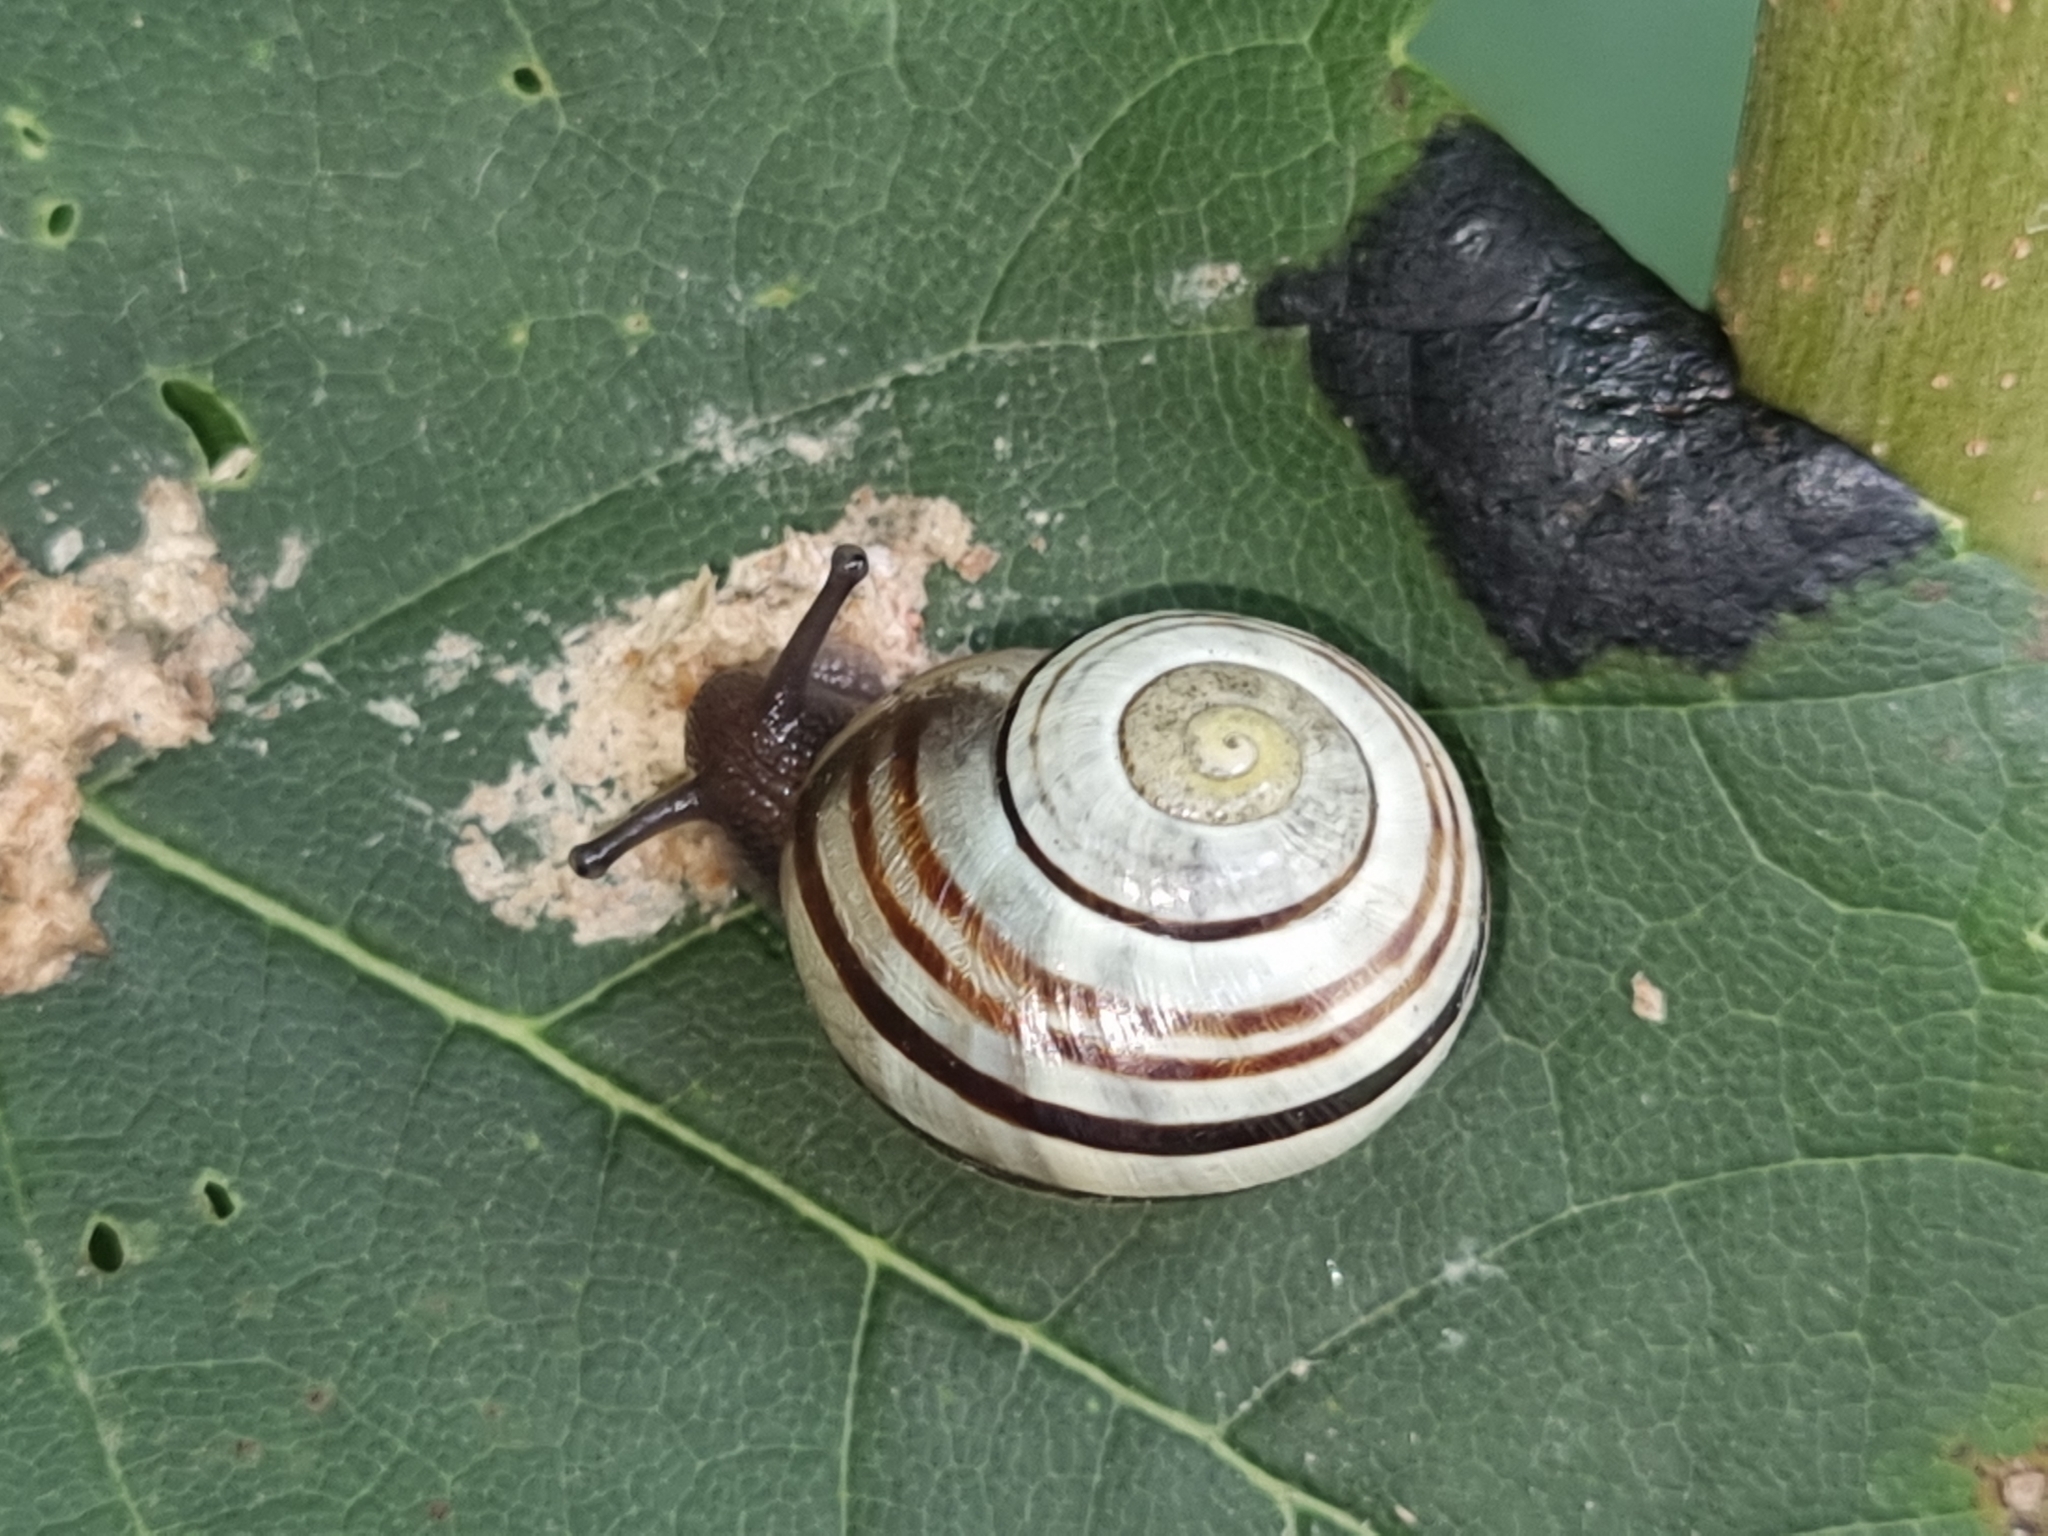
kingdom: Animalia
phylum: Mollusca
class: Gastropoda
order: Stylommatophora
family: Helicidae
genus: Cepaea
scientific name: Cepaea
